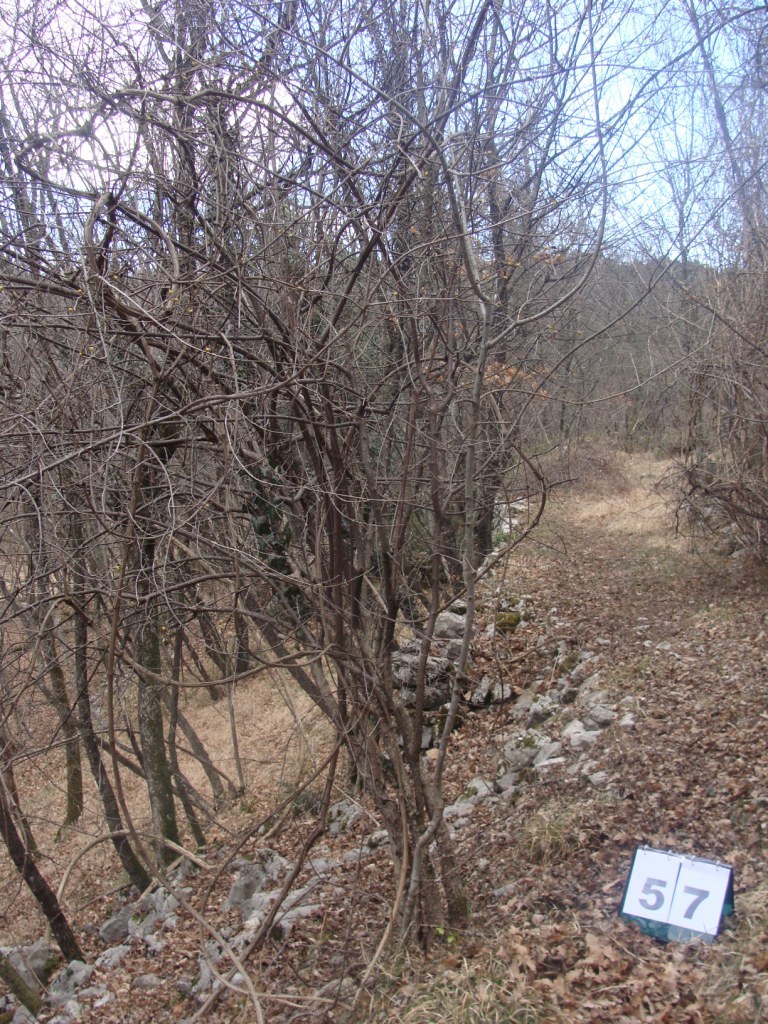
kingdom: Plantae
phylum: Tracheophyta
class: Magnoliopsida
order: Cornales
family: Cornaceae
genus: Cornus
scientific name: Cornus mas
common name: Cornelian-cherry
